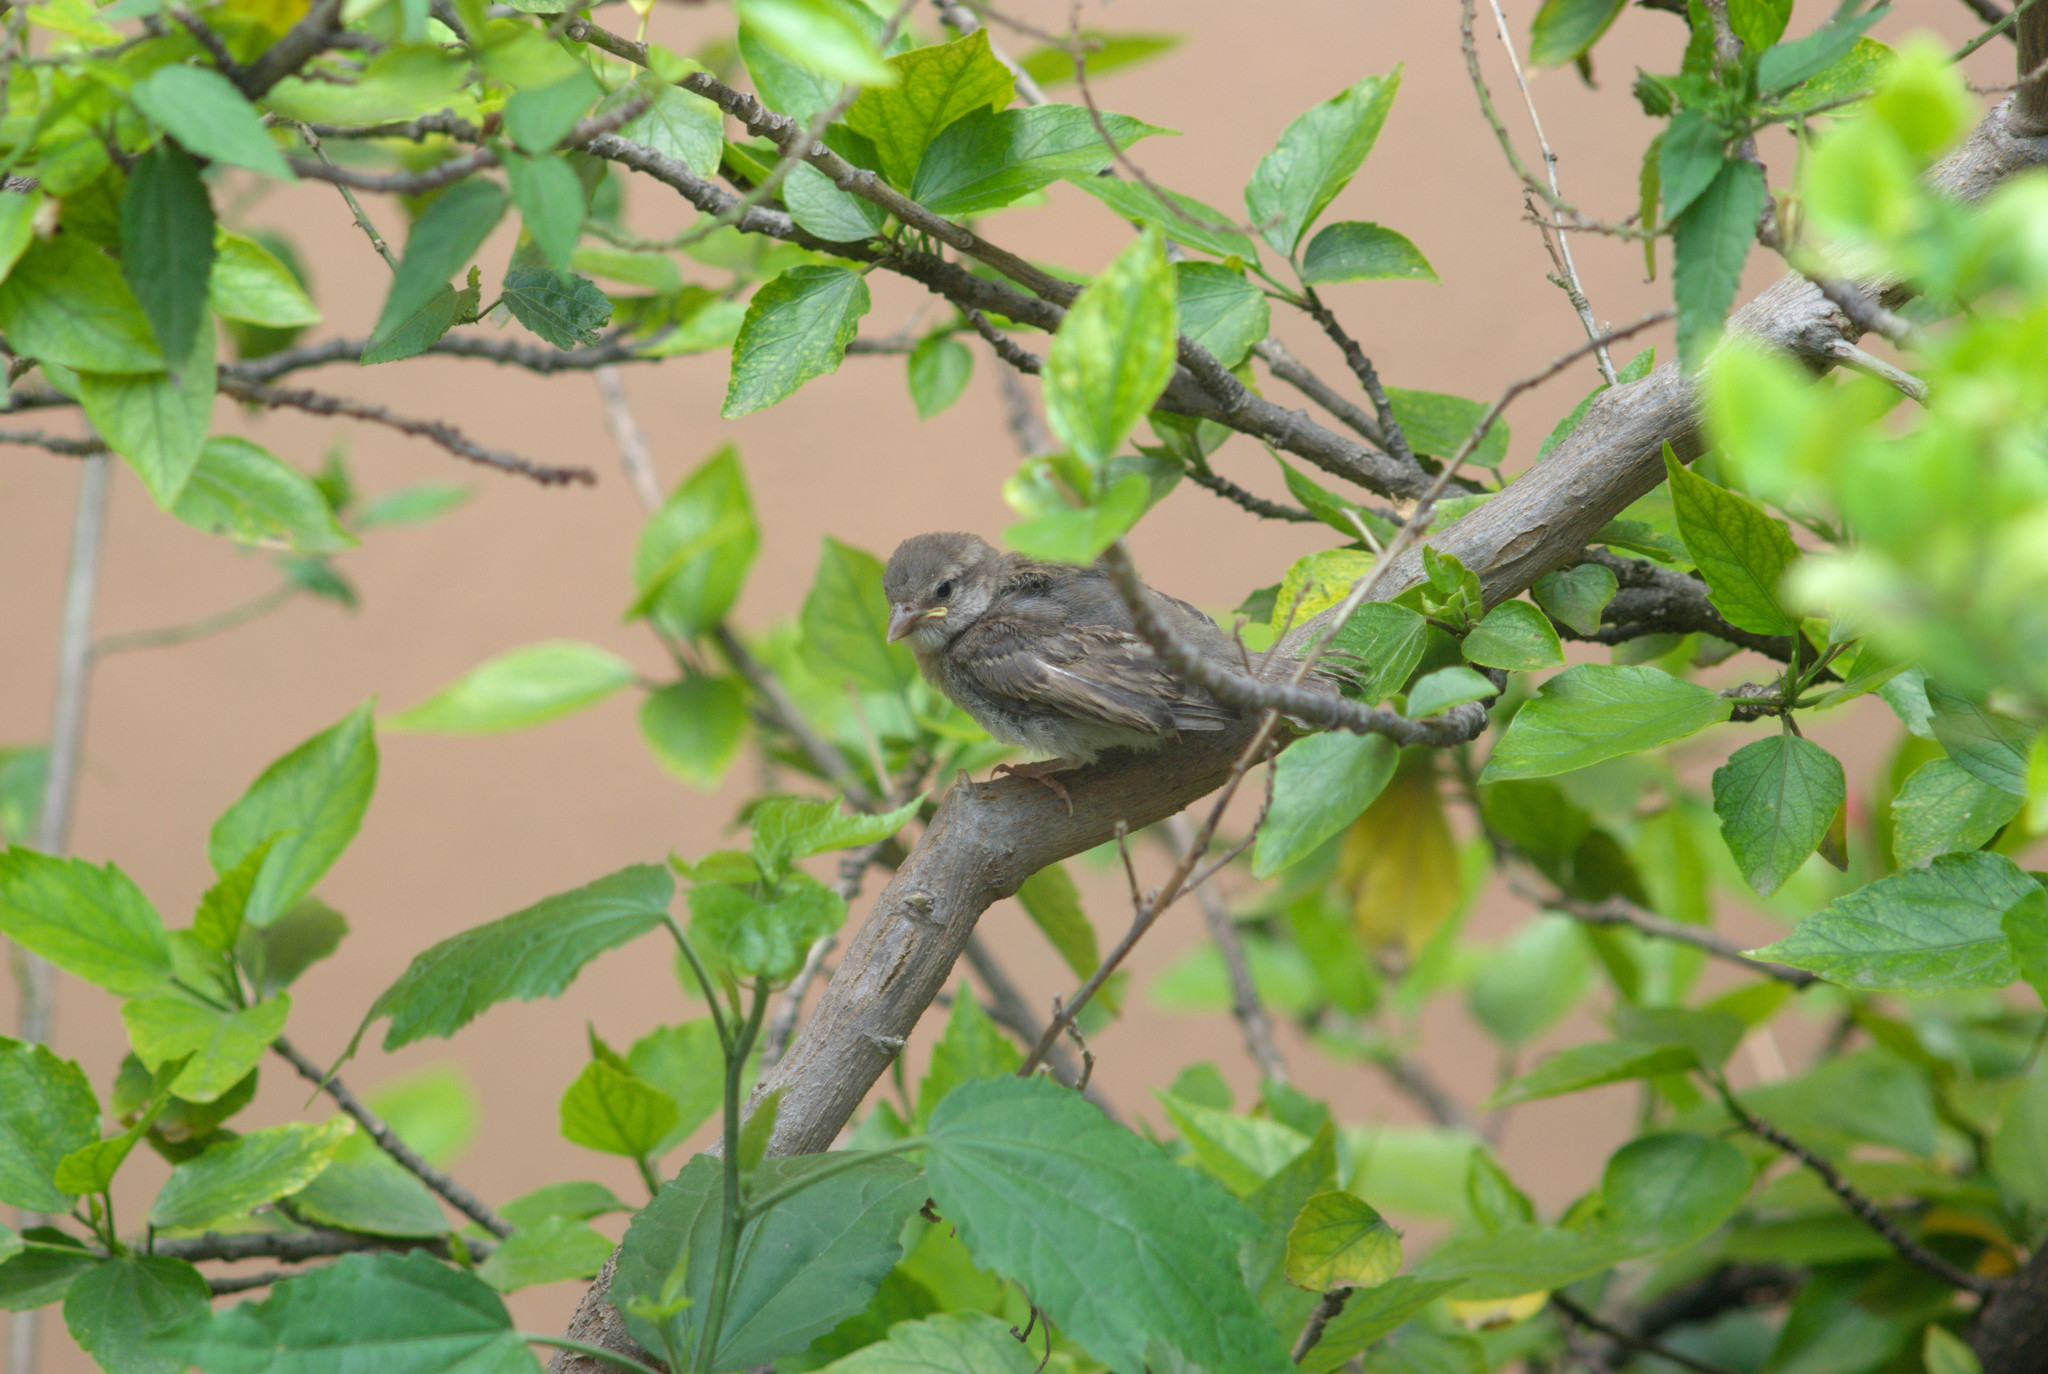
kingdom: Animalia
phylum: Chordata
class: Aves
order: Passeriformes
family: Passeridae
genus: Passer
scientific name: Passer domesticus
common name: House sparrow
